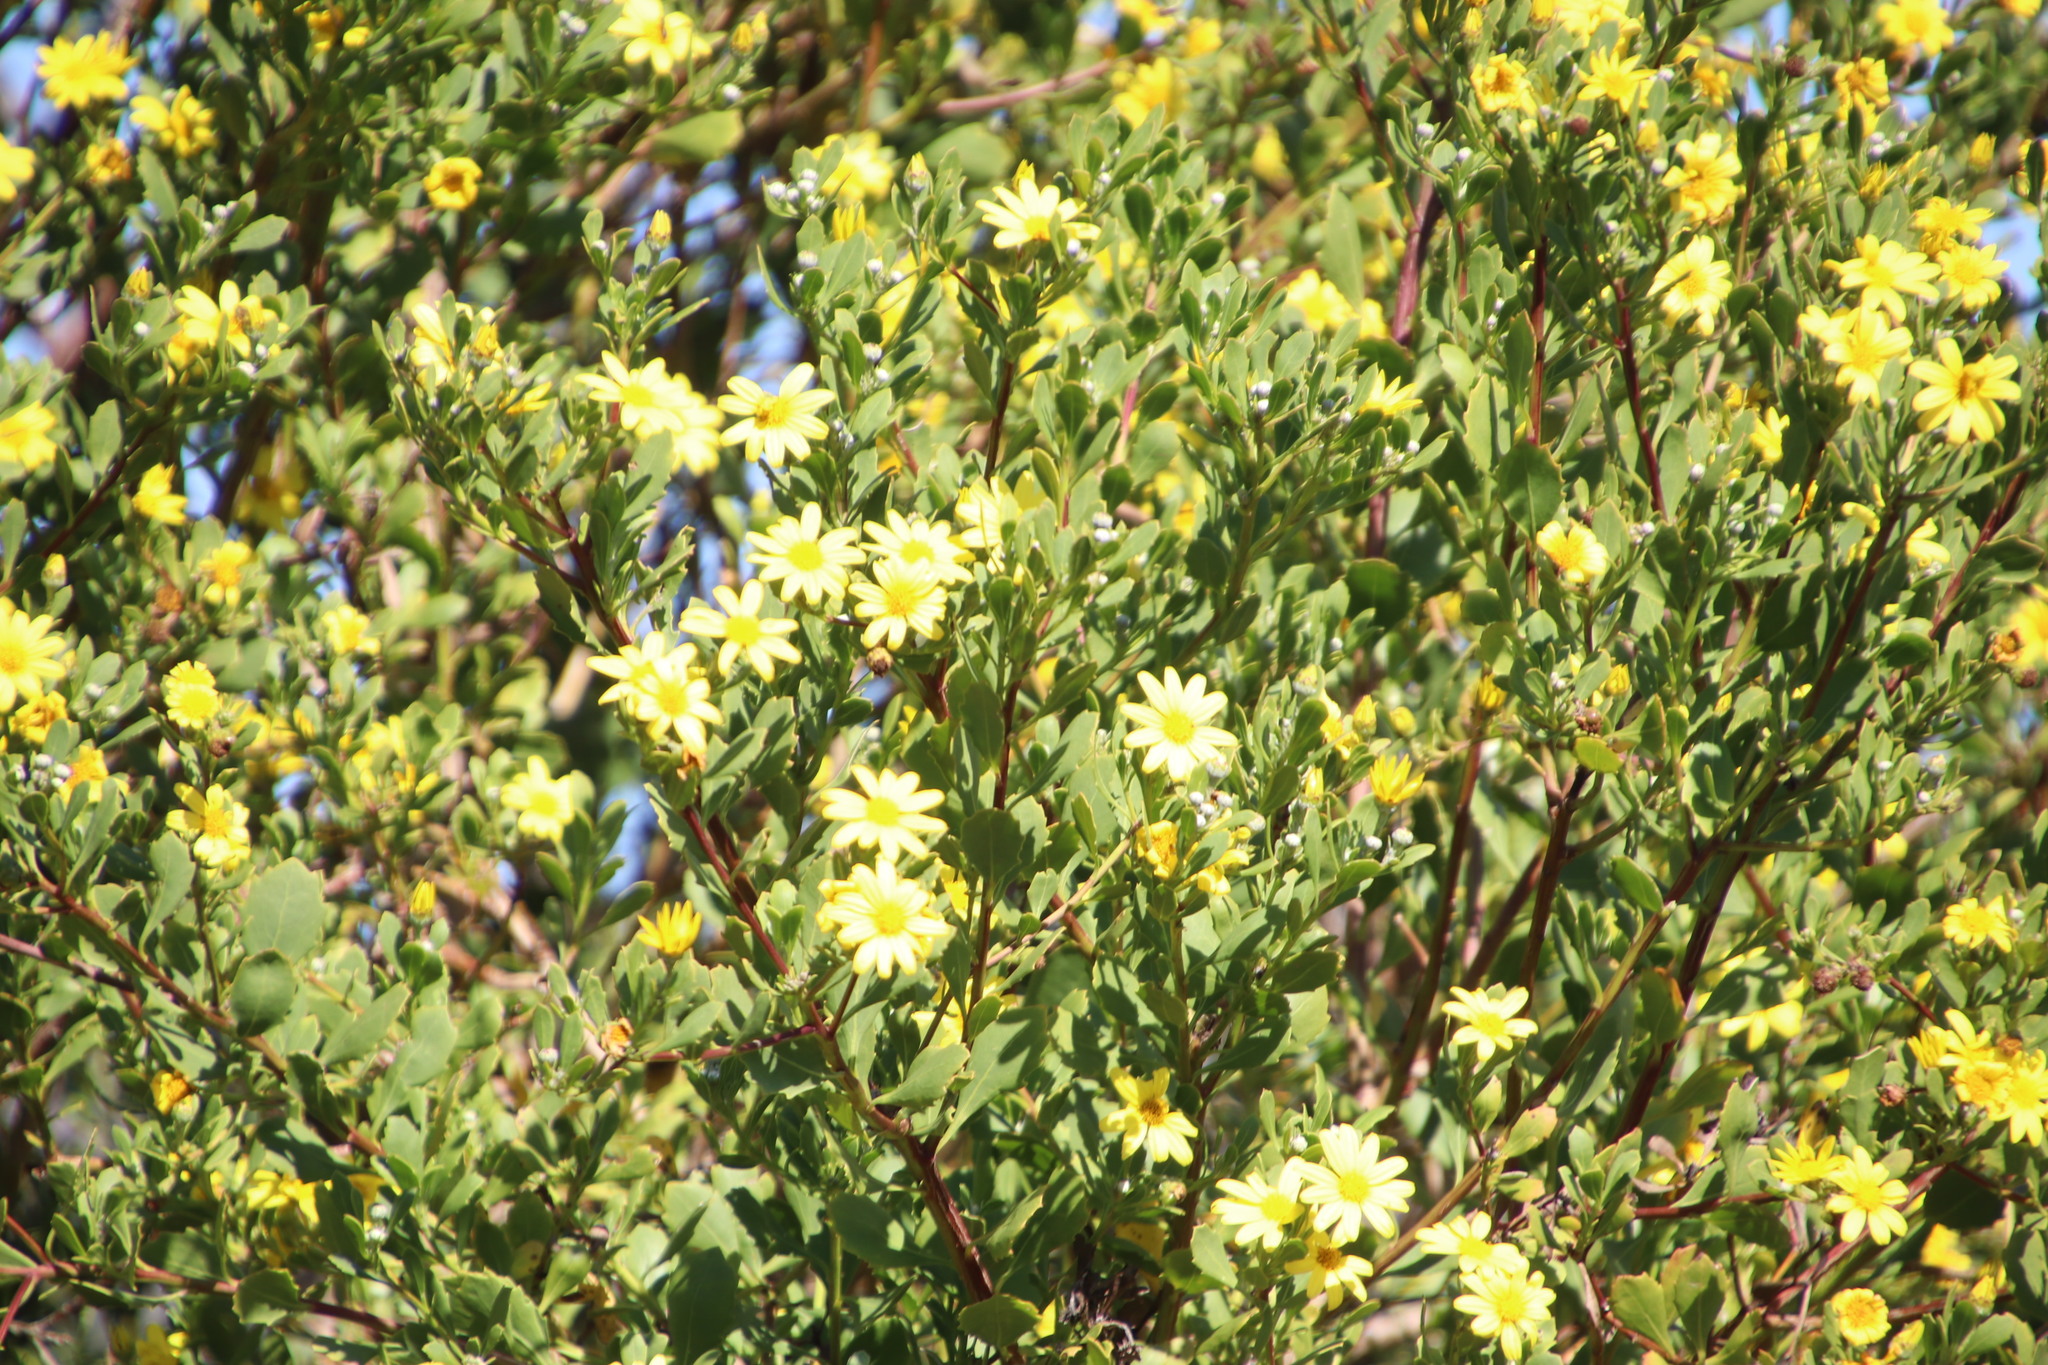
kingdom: Plantae
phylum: Tracheophyta
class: Magnoliopsida
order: Asterales
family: Asteraceae
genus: Osteospermum
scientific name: Osteospermum moniliferum
